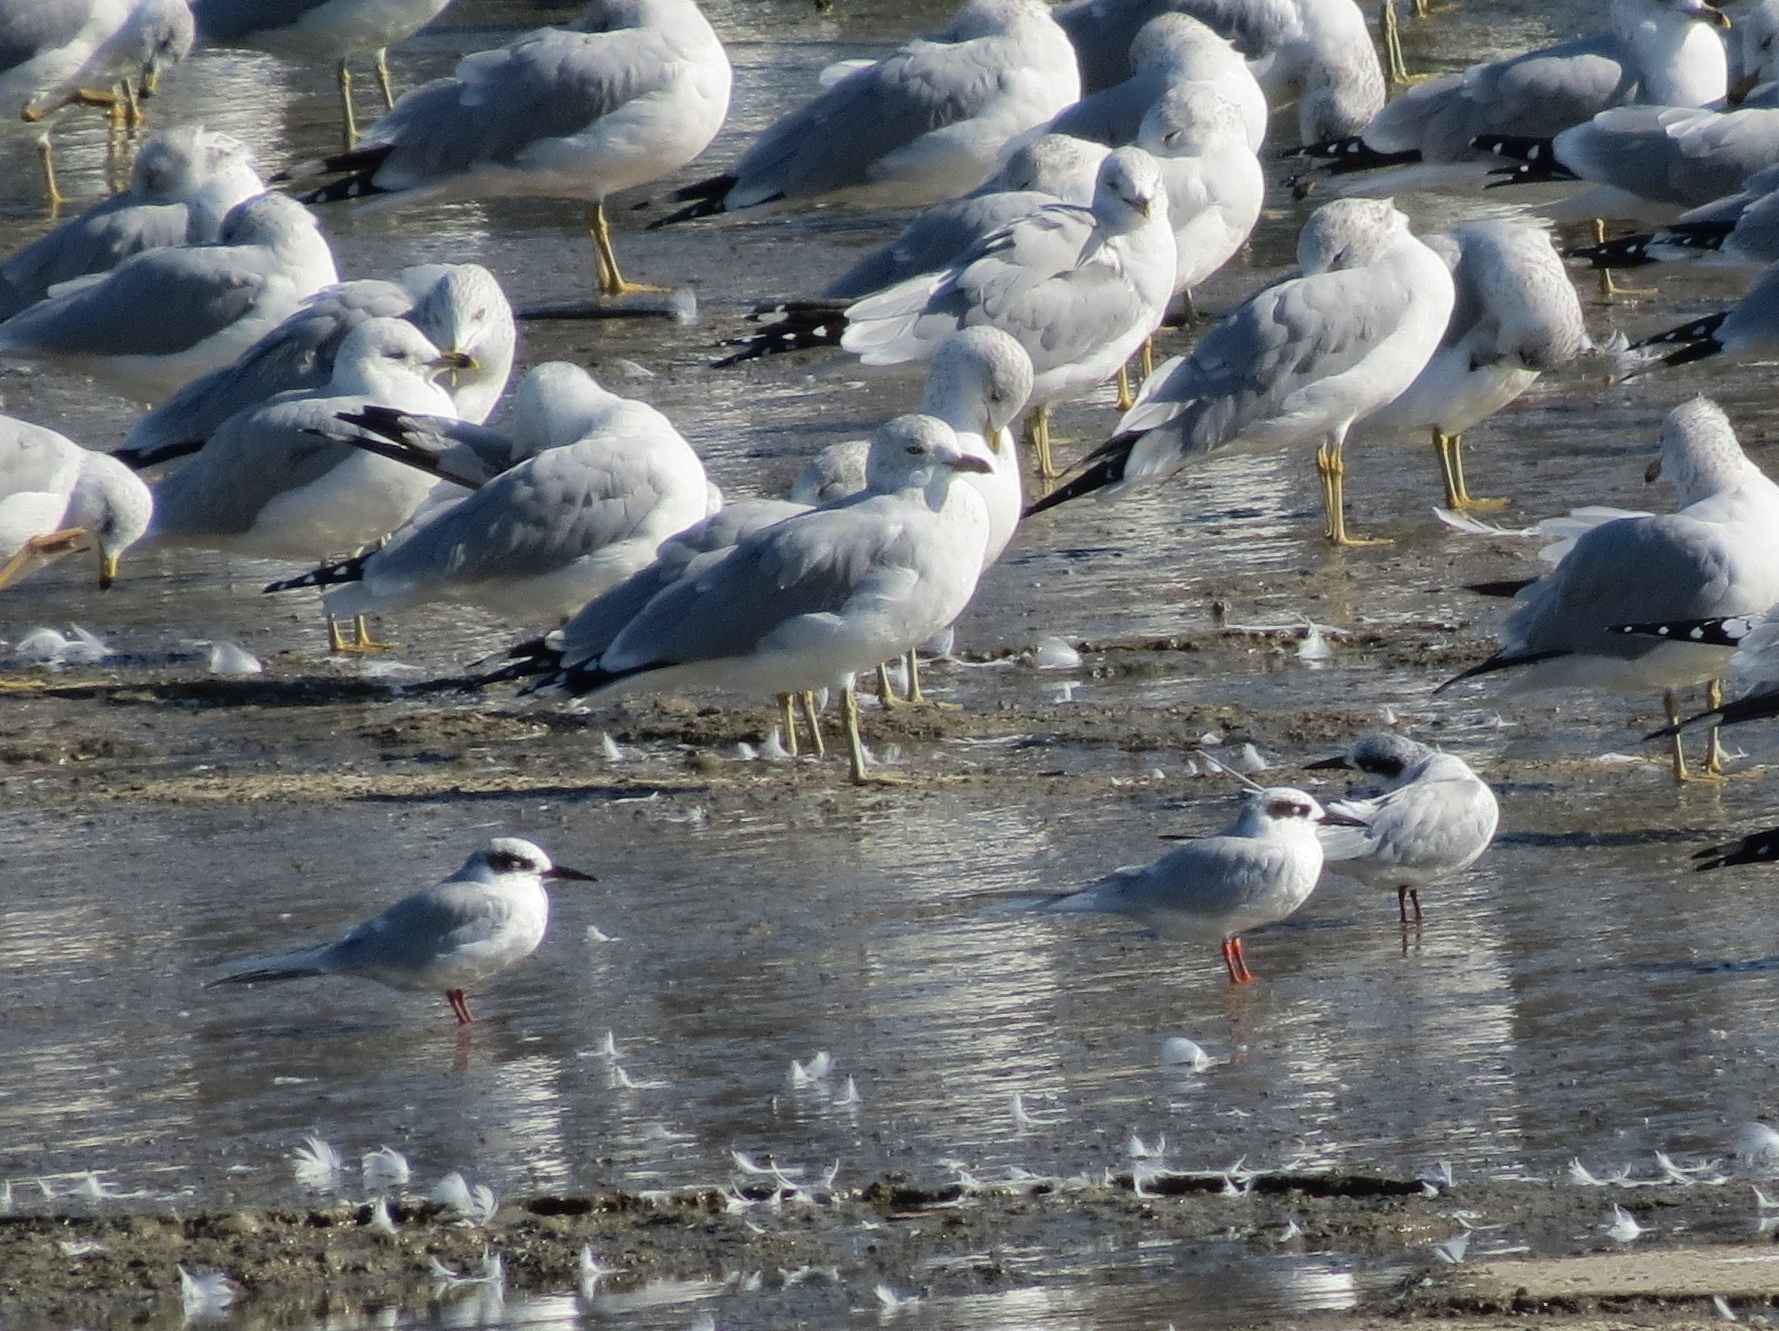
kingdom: Animalia
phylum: Chordata
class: Aves
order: Charadriiformes
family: Laridae
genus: Sterna
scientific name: Sterna forsteri
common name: Forster's tern
